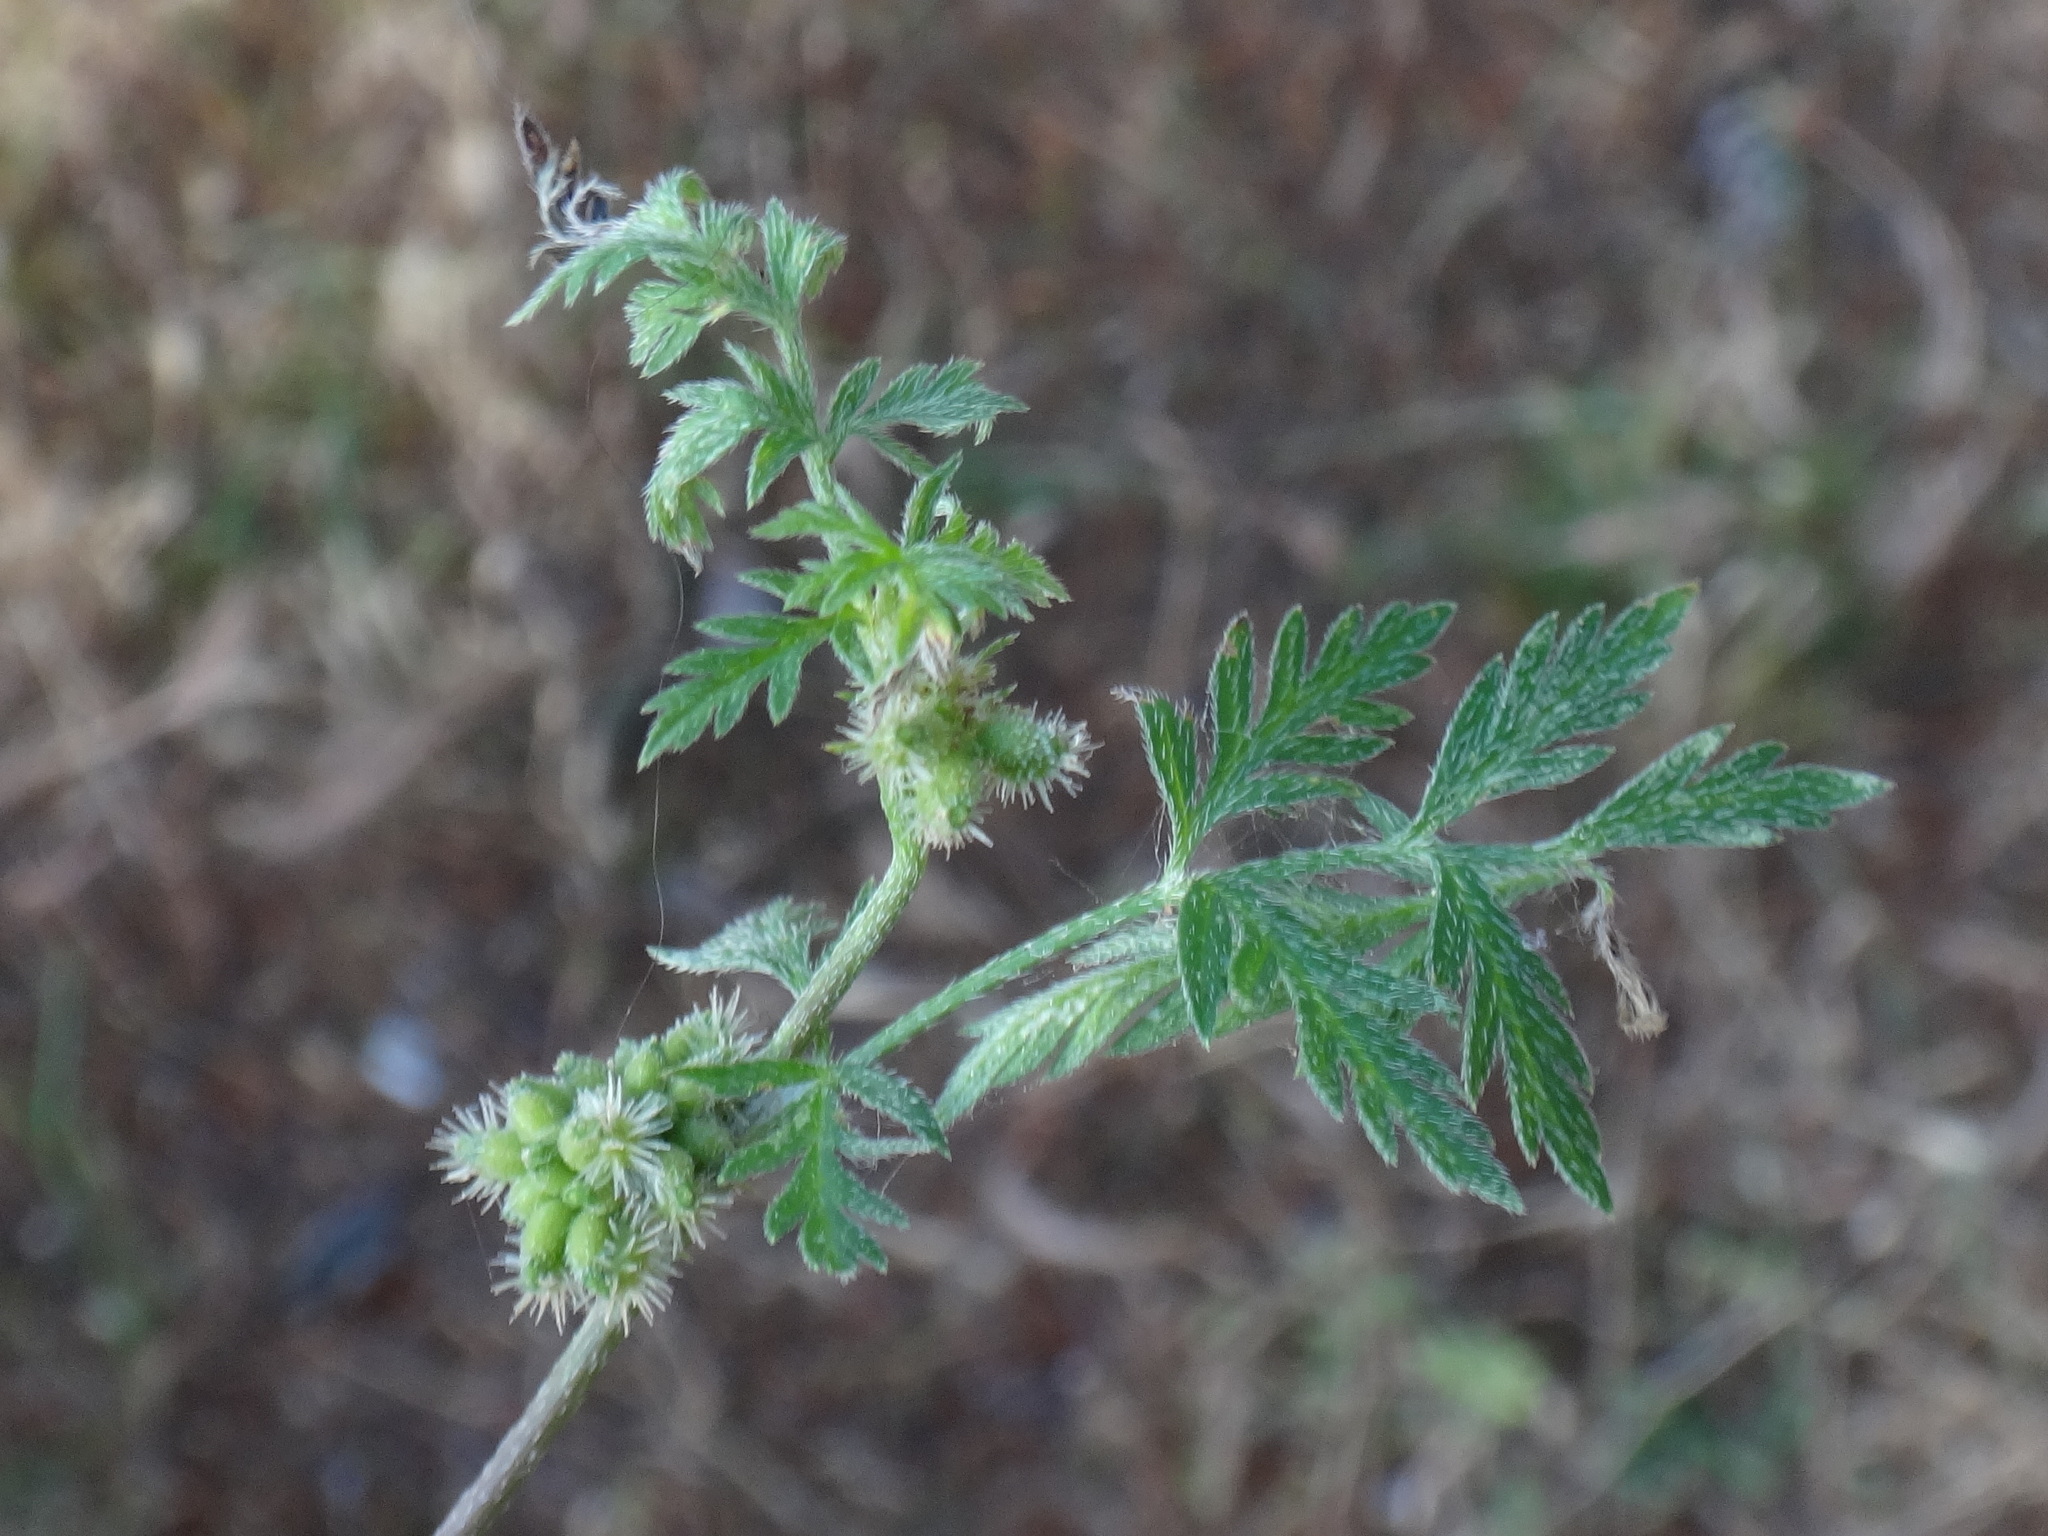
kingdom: Plantae
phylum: Tracheophyta
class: Magnoliopsida
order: Apiales
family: Apiaceae
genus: Torilis
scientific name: Torilis nodosa
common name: Knotted hedge-parsley
